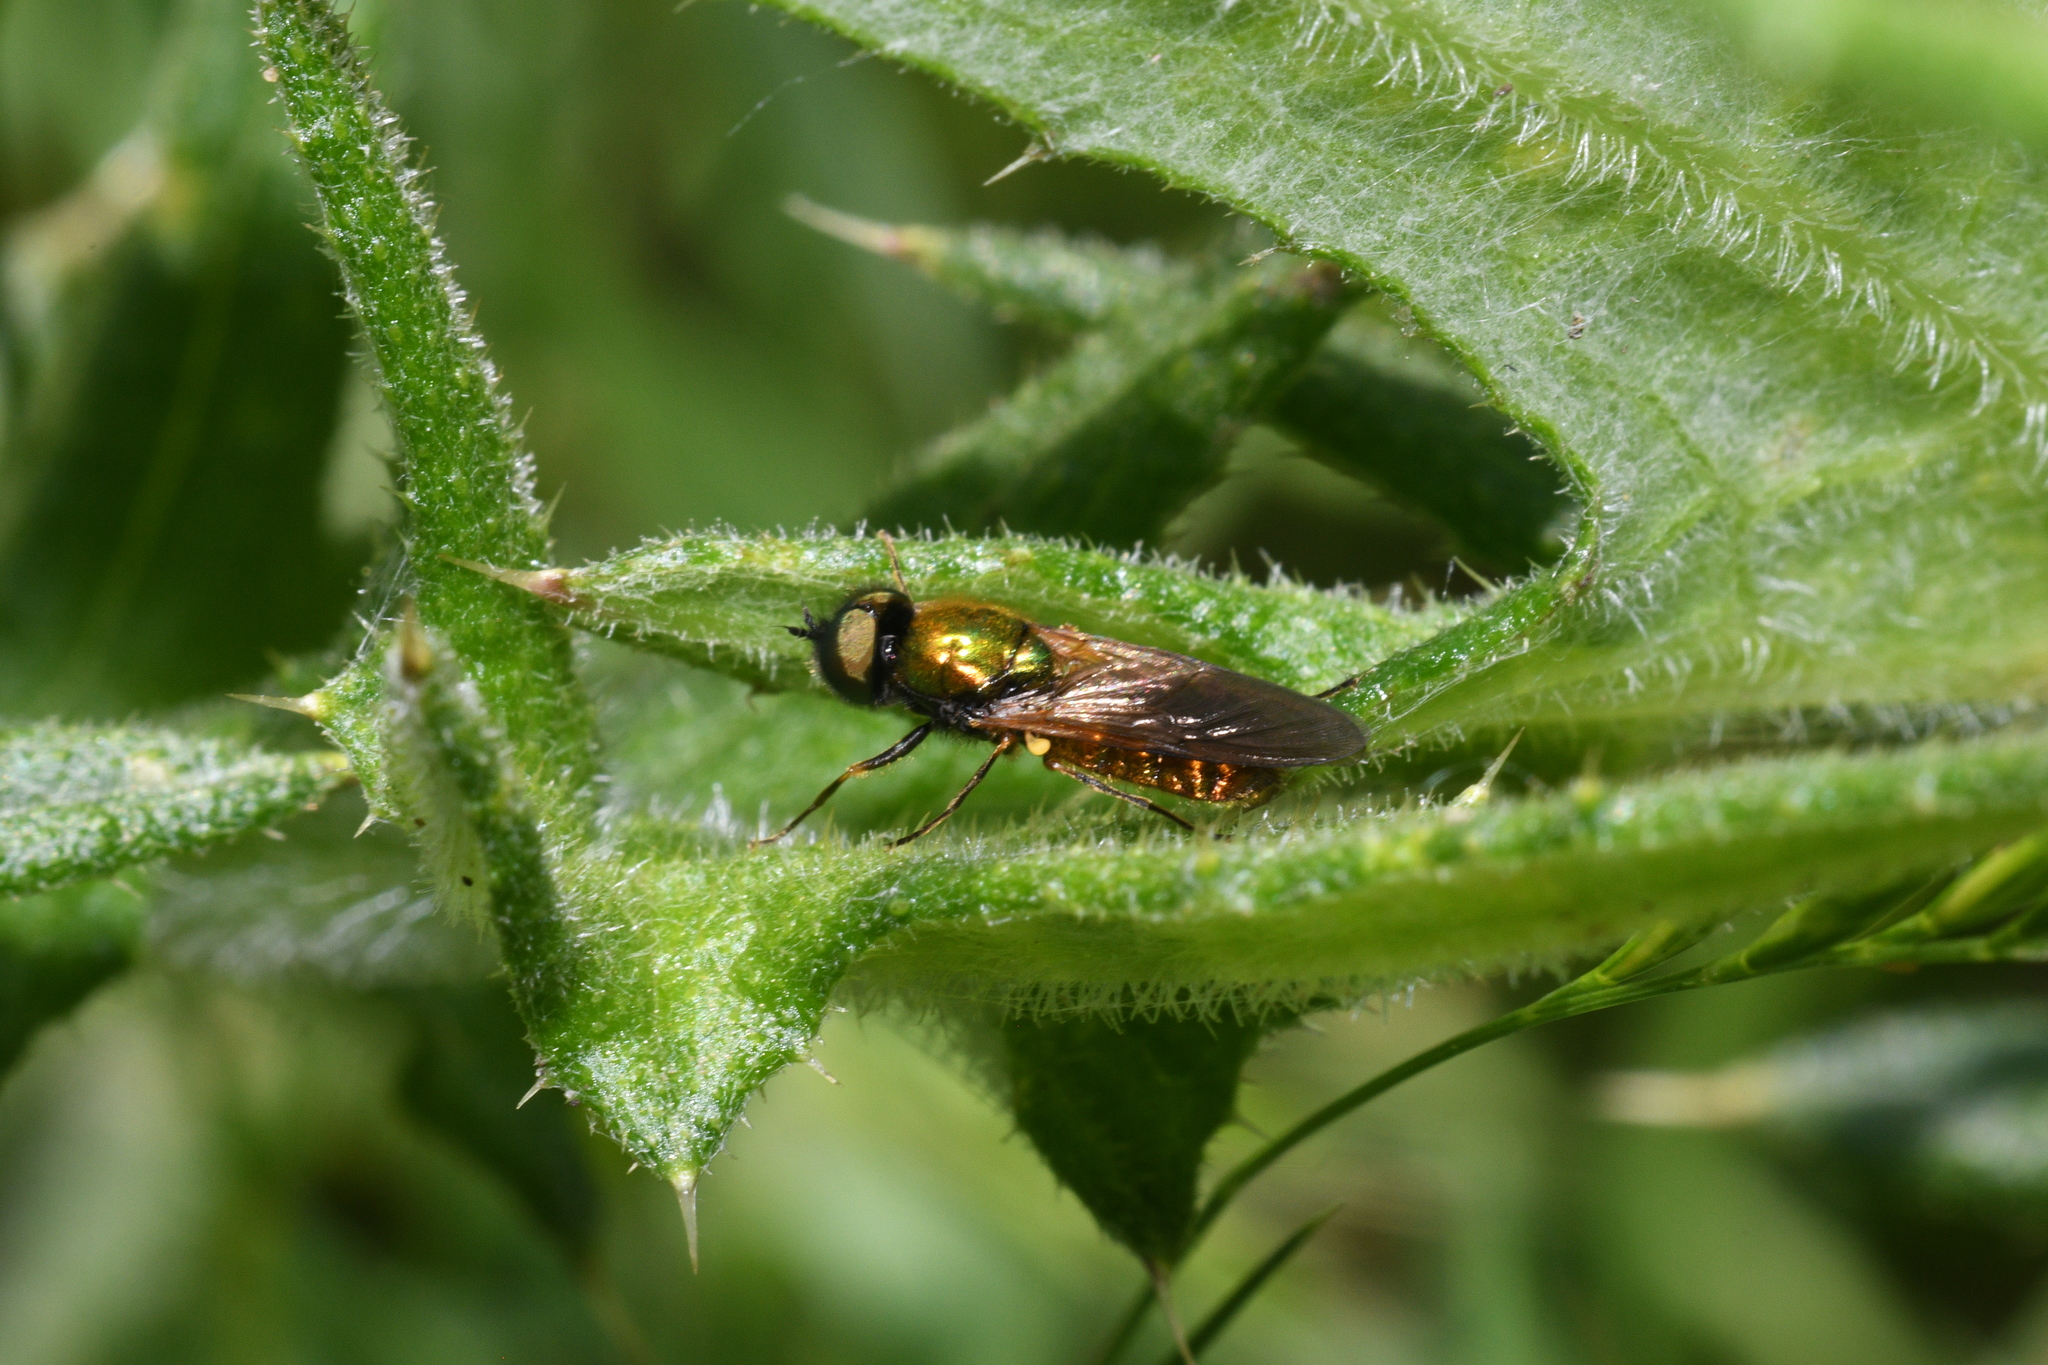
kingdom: Animalia
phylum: Arthropoda
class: Insecta
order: Diptera
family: Stratiomyidae
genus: Chloromyia
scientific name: Chloromyia formosa
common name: Soldier fly
